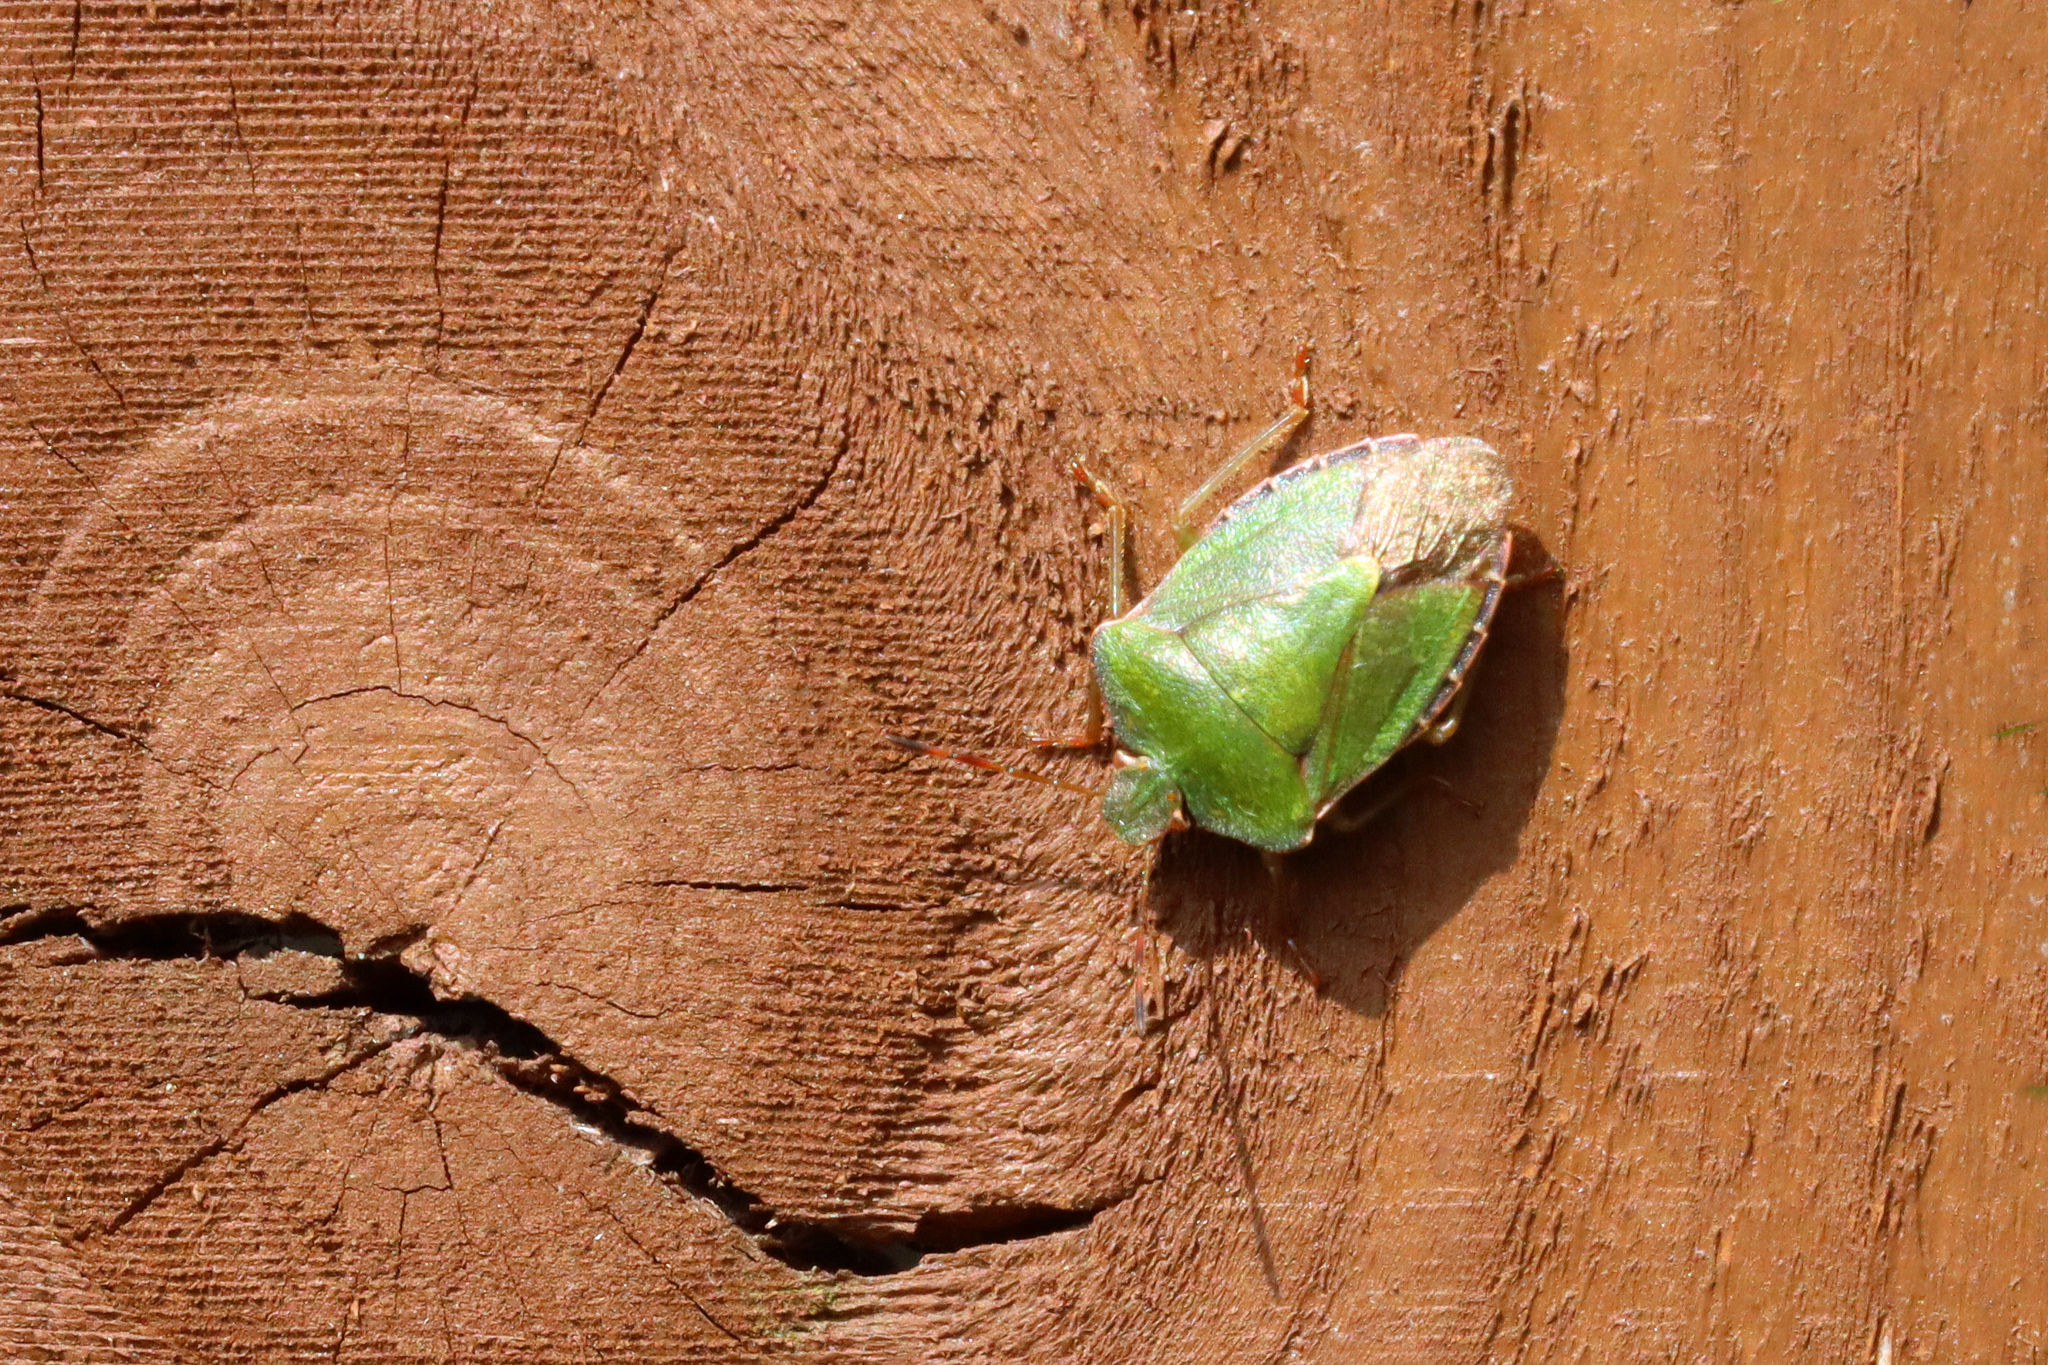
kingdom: Animalia
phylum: Arthropoda
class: Insecta
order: Hemiptera
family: Pentatomidae
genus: Palomena
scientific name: Palomena prasina
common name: Green shieldbug
